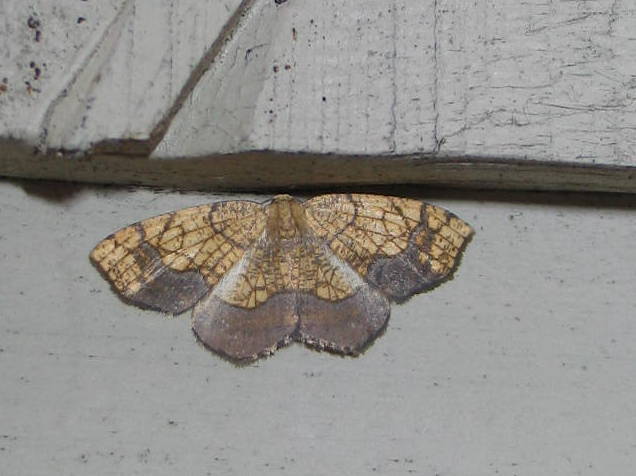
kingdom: Animalia
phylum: Arthropoda
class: Insecta
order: Lepidoptera
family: Geometridae
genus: Nematocampa
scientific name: Nematocampa resistaria
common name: Horned spanworm moth
